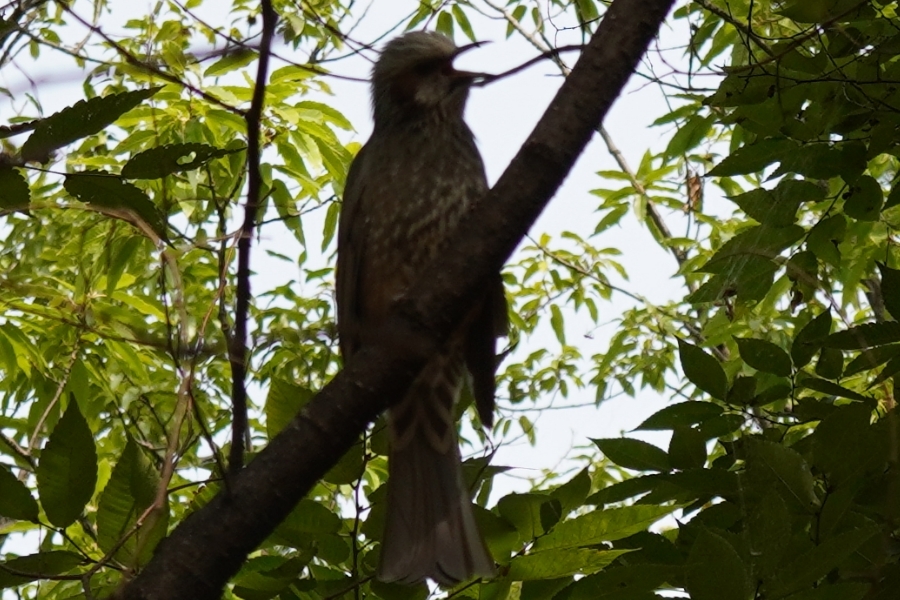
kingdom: Animalia
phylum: Chordata
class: Aves
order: Passeriformes
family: Pycnonotidae
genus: Hypsipetes
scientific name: Hypsipetes amaurotis
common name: Brown-eared bulbul
